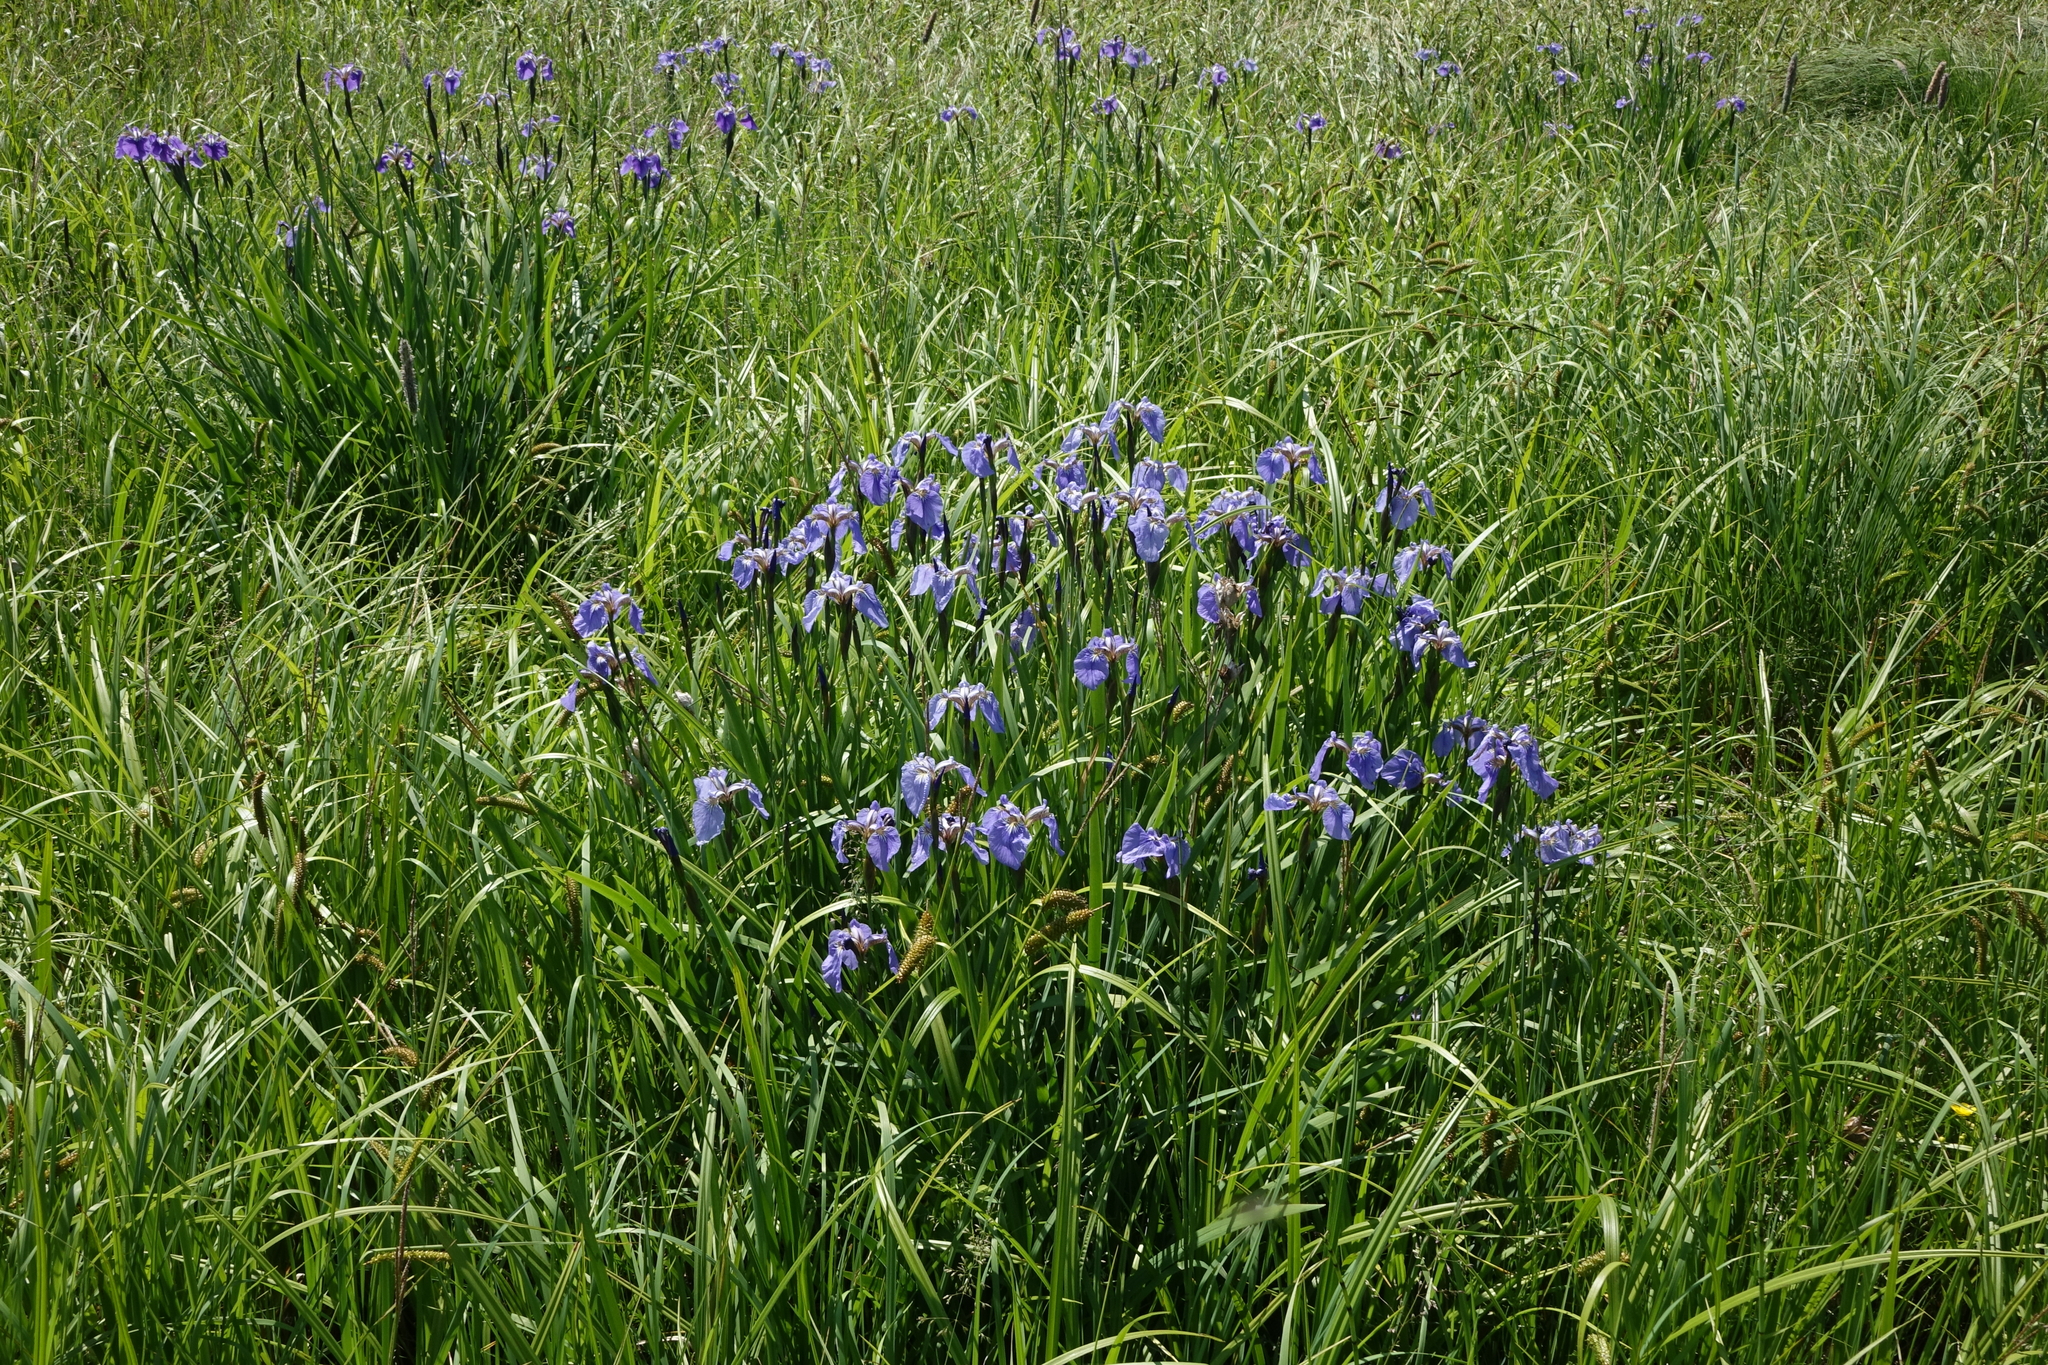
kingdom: Plantae
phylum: Tracheophyta
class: Liliopsida
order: Asparagales
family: Iridaceae
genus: Iris
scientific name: Iris setosa
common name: Arctic blue flag
